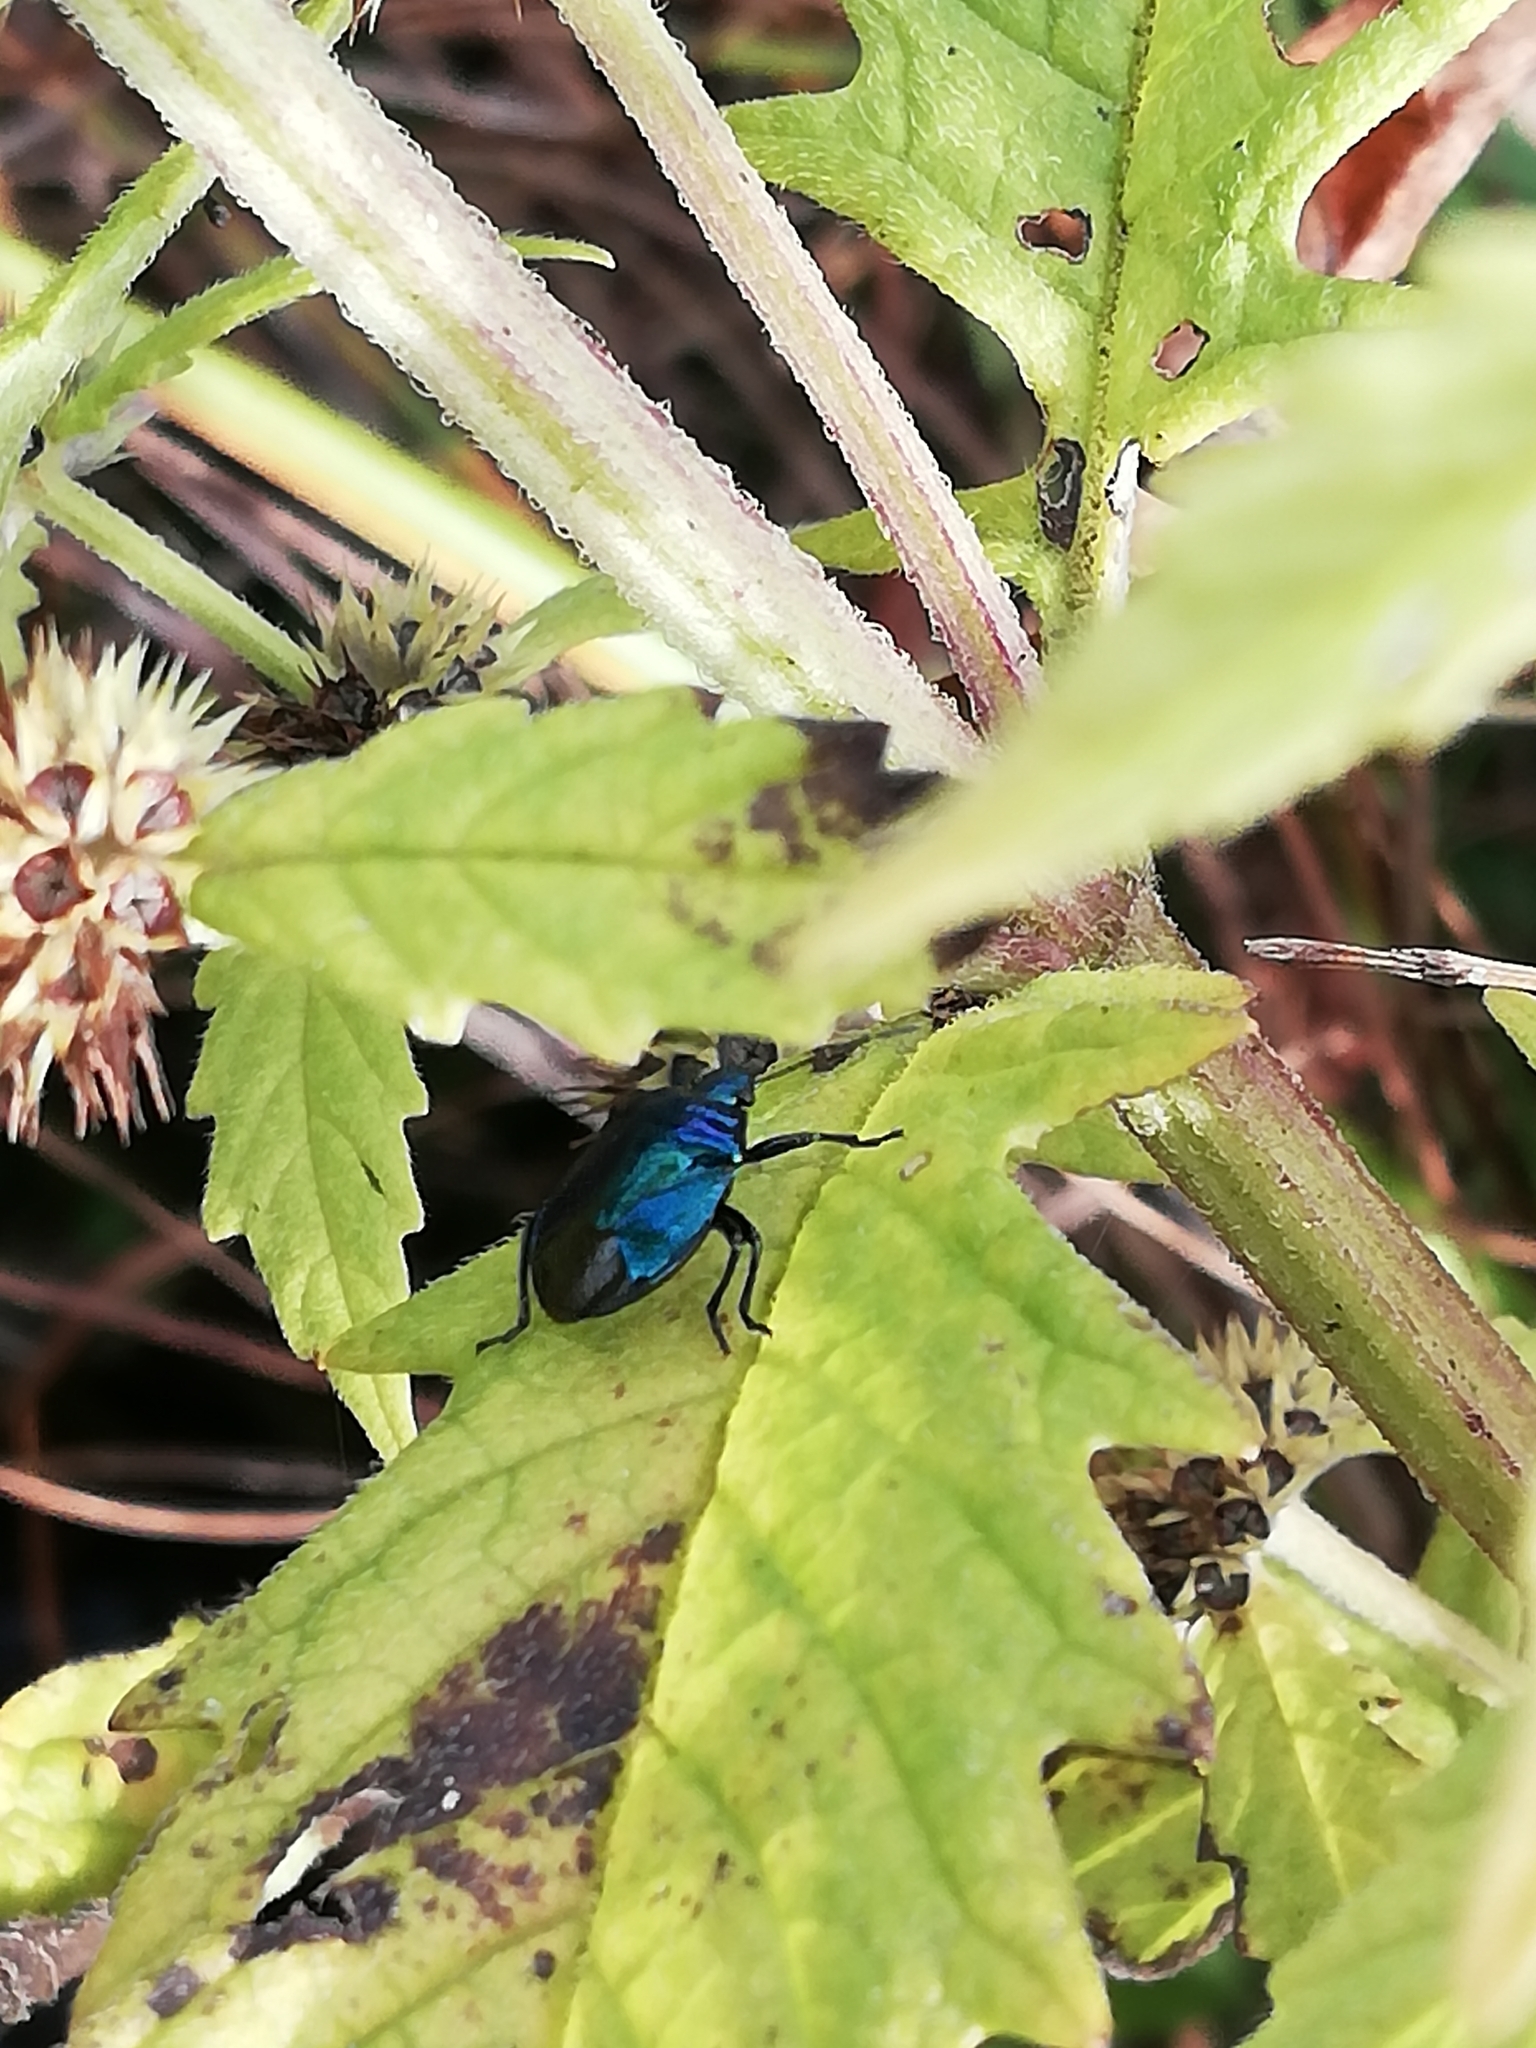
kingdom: Animalia
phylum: Arthropoda
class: Insecta
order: Hemiptera
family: Pentatomidae
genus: Zicrona
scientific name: Zicrona caerulea
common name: Blue shieldbug
